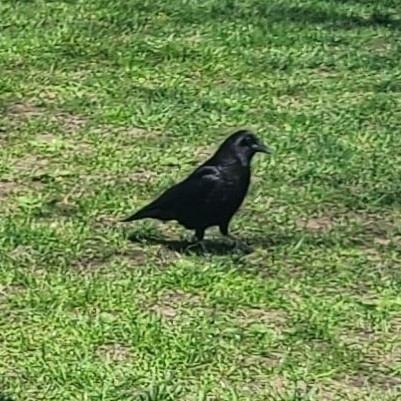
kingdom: Animalia
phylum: Chordata
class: Aves
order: Passeriformes
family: Corvidae
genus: Corvus
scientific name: Corvus brachyrhynchos
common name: American crow
